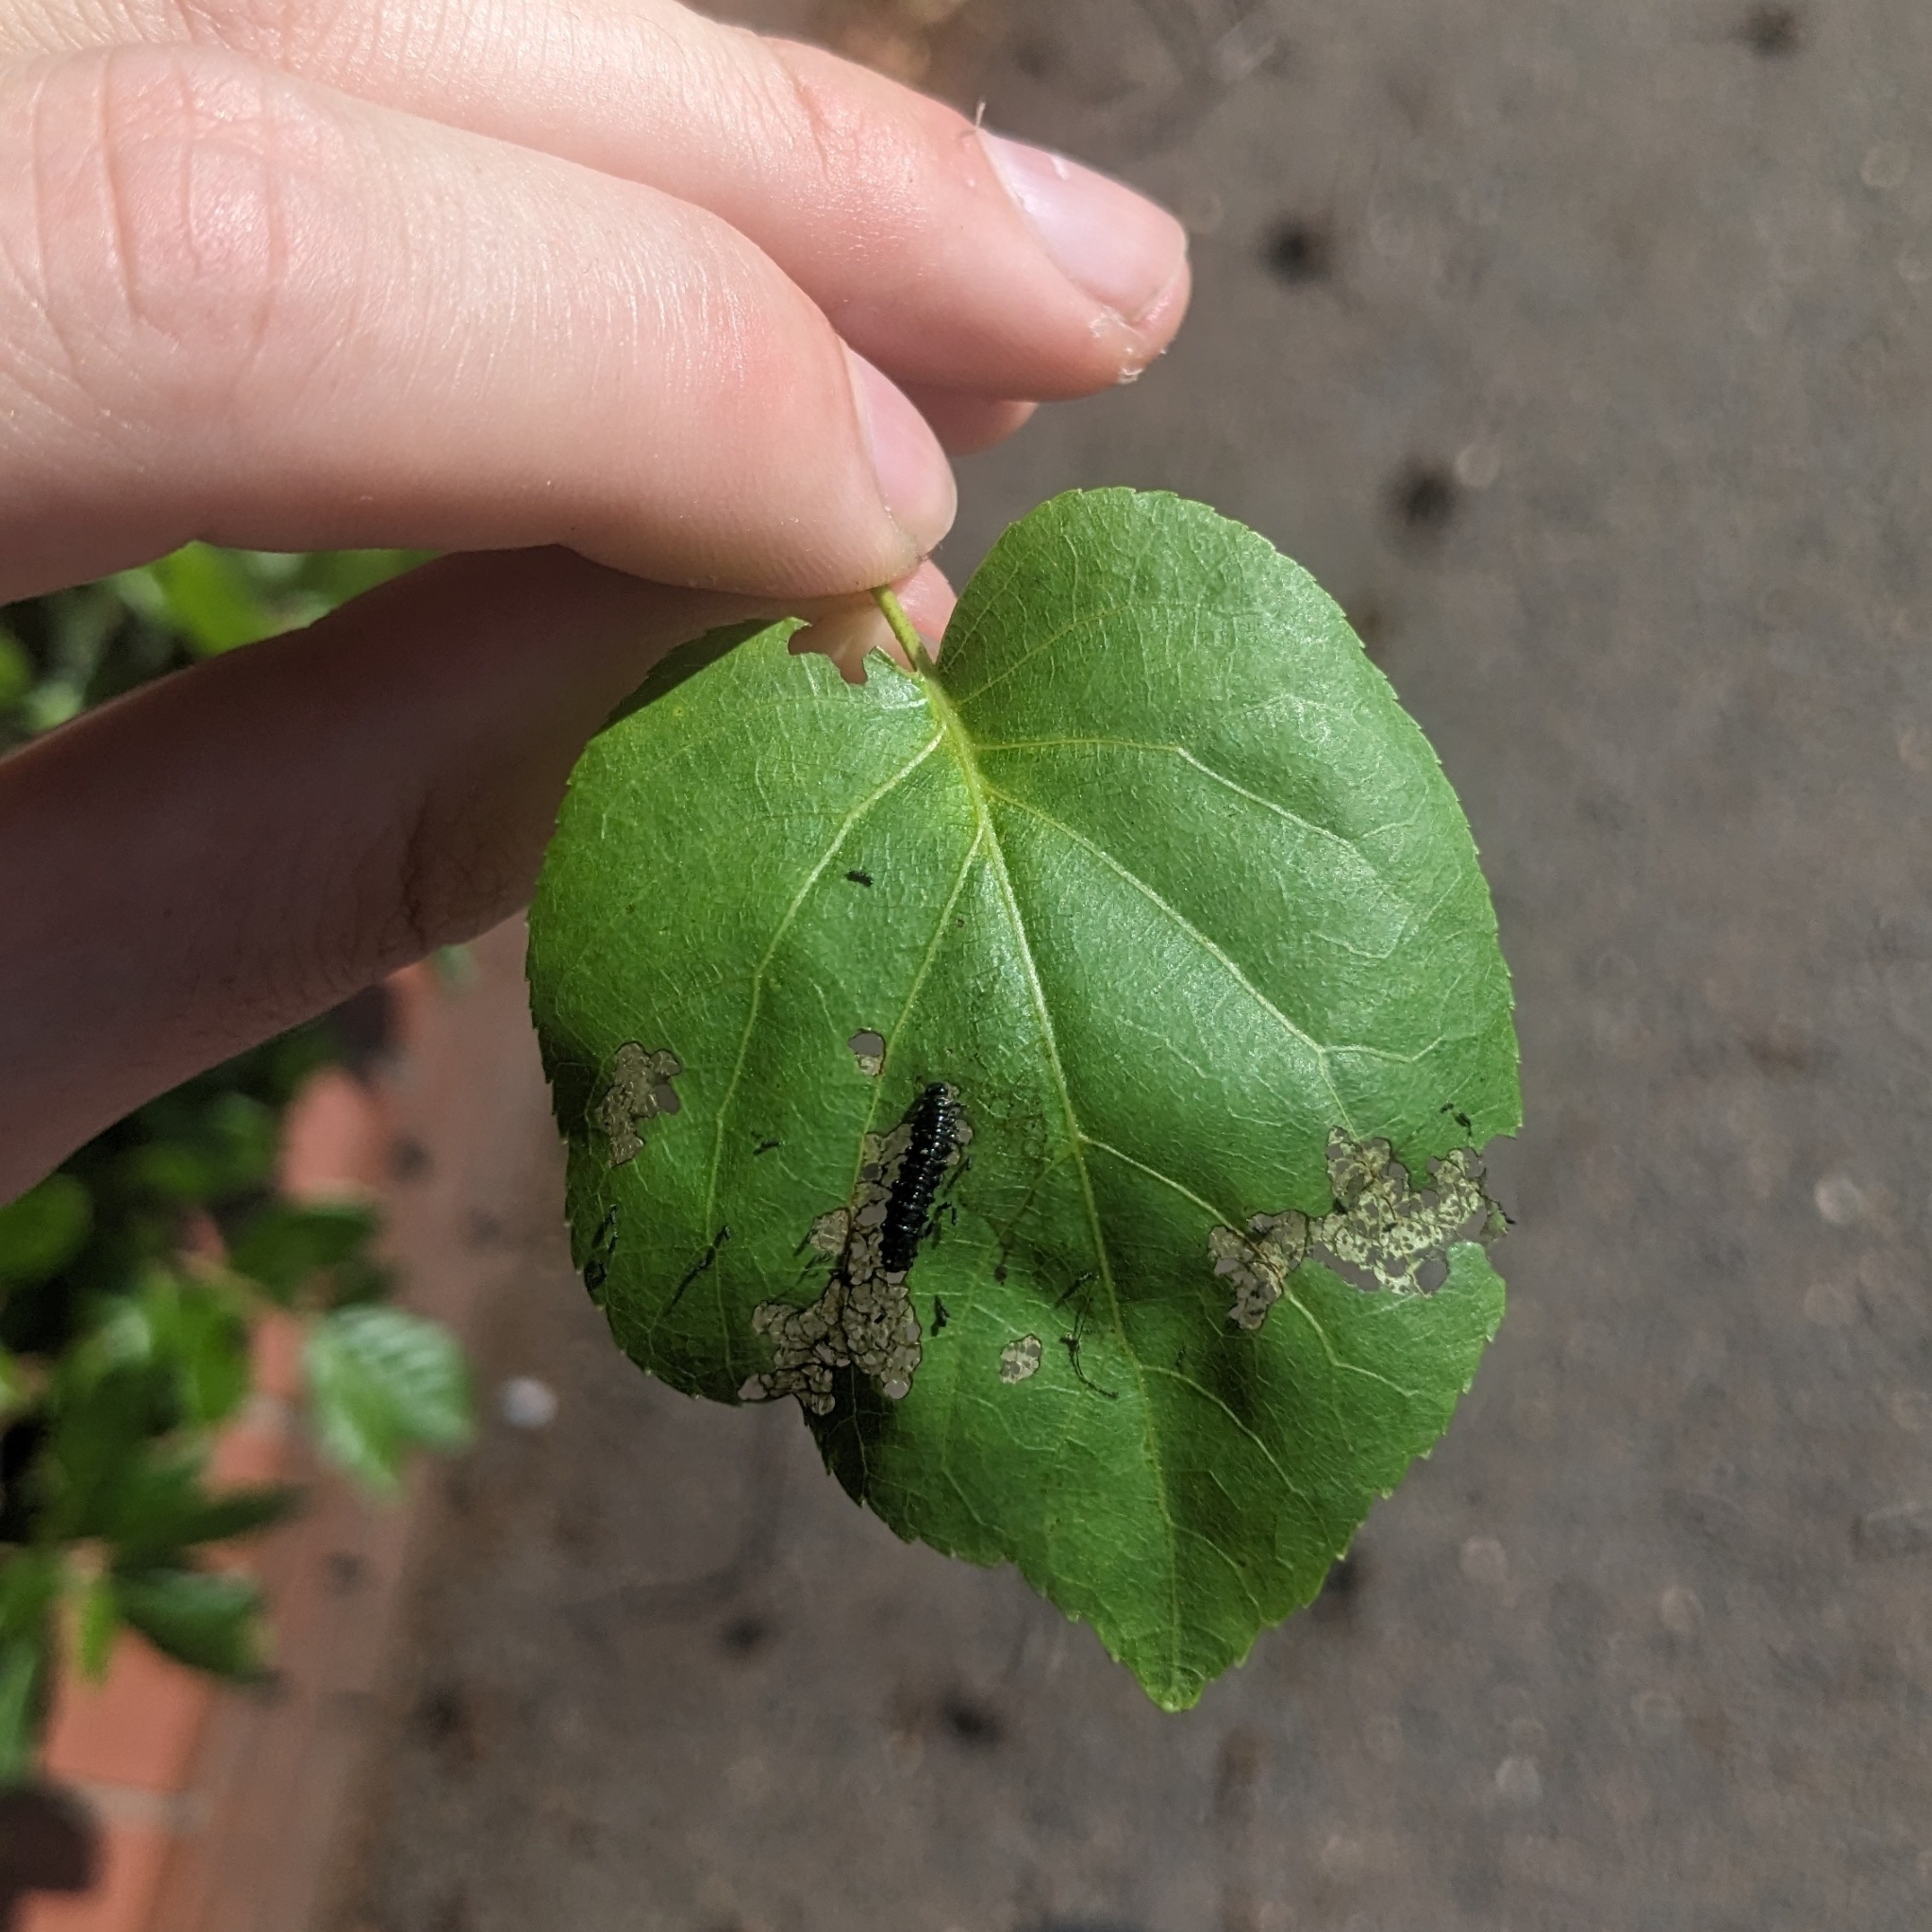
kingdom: Animalia
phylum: Arthropoda
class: Insecta
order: Coleoptera
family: Chrysomelidae
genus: Agelastica
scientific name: Agelastica alni
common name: Alder leaf beetle
